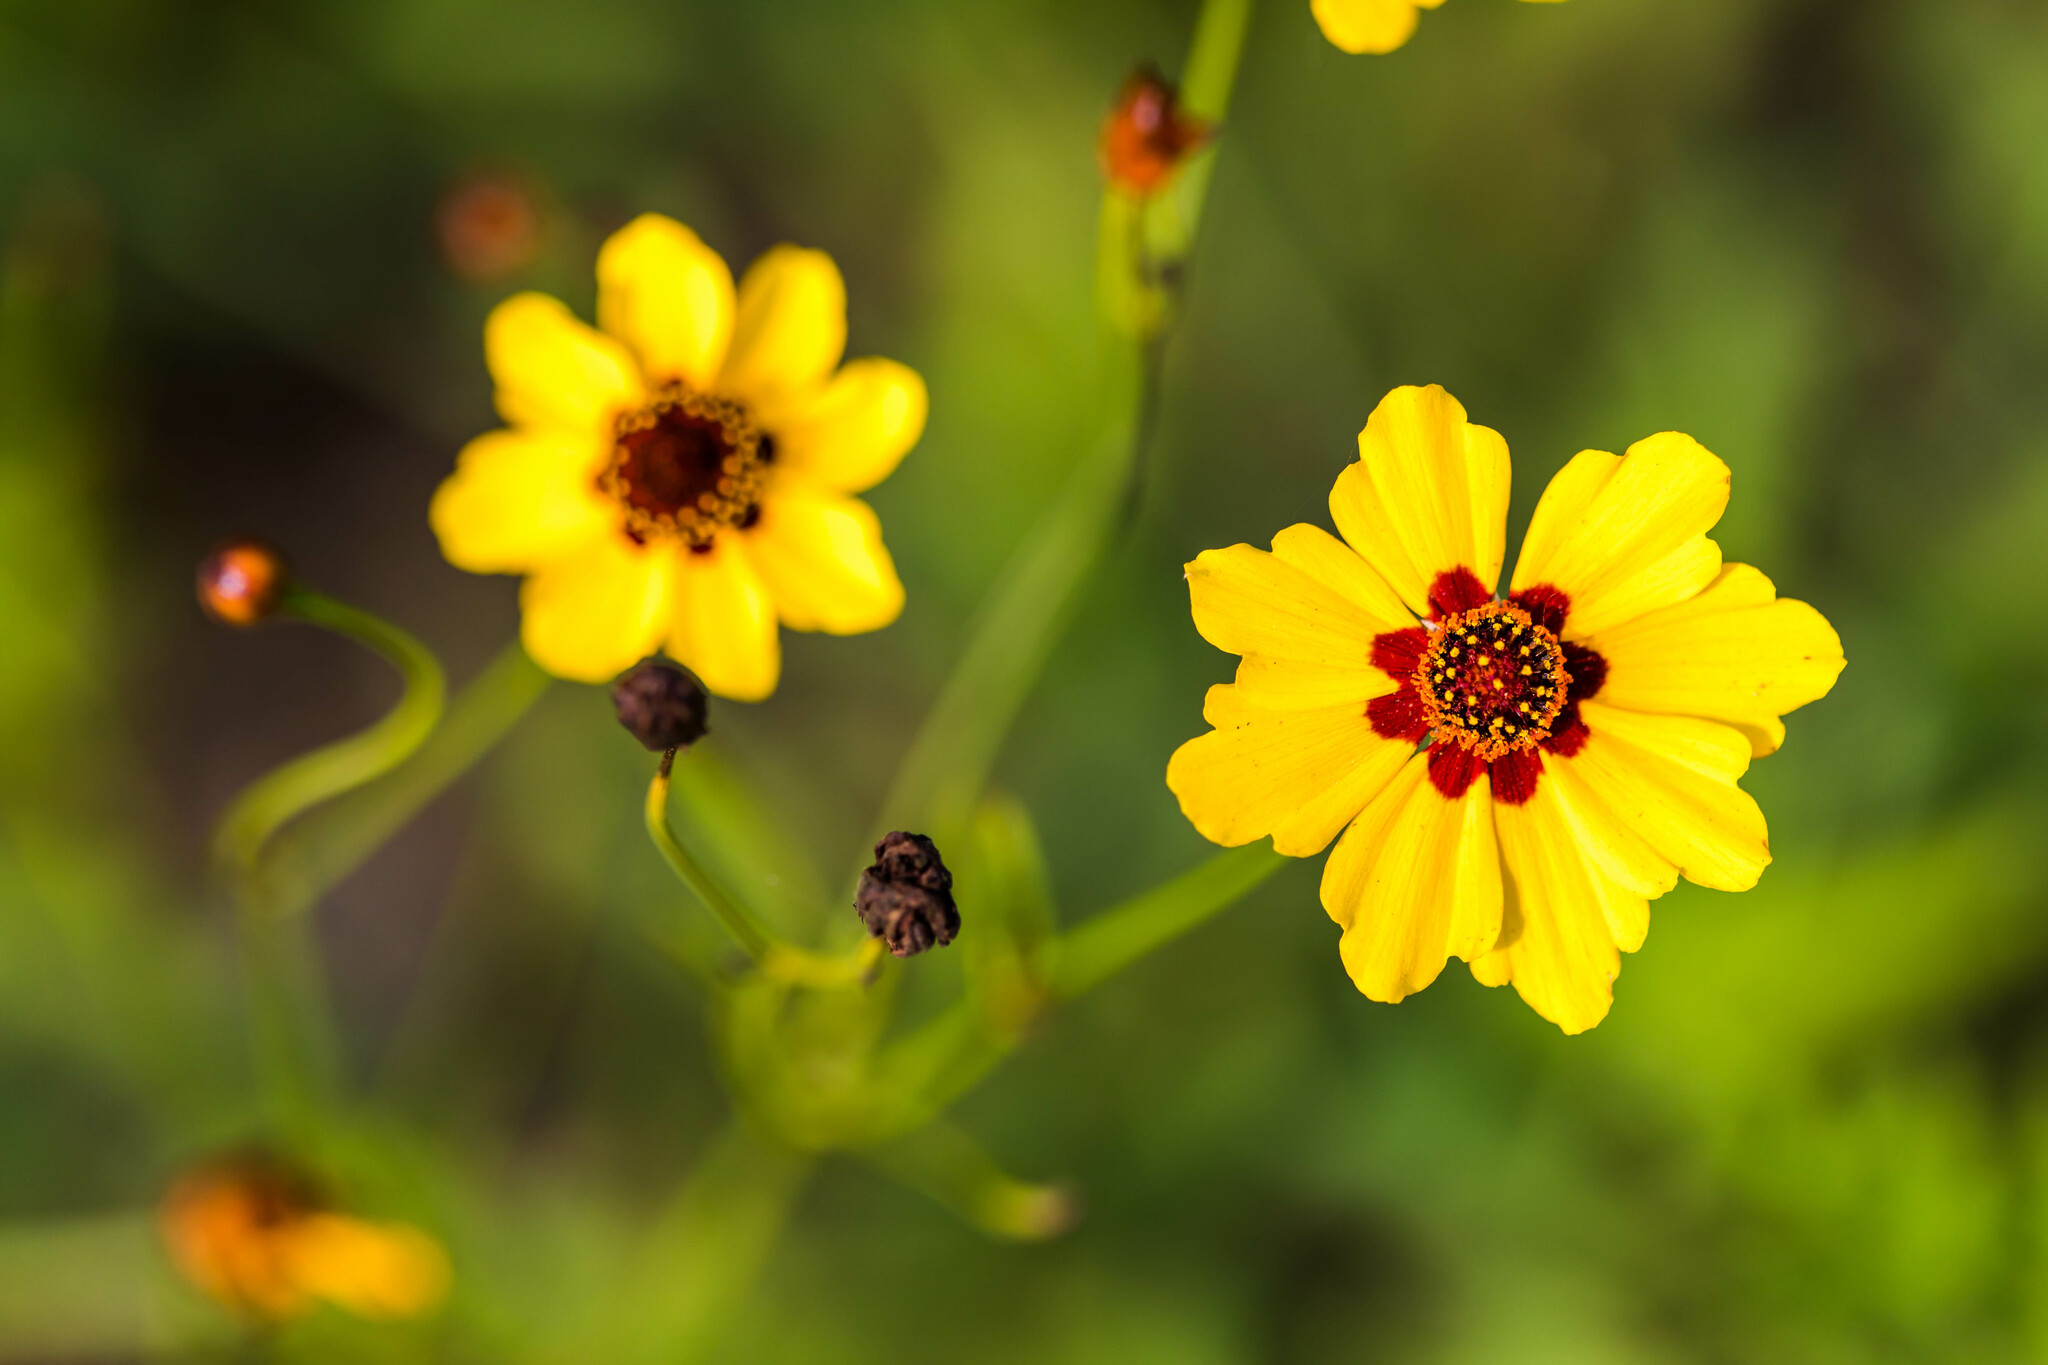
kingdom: Plantae
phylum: Tracheophyta
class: Magnoliopsida
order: Asterales
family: Asteraceae
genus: Coreopsis
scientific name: Coreopsis tinctoria
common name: Garden tickseed
